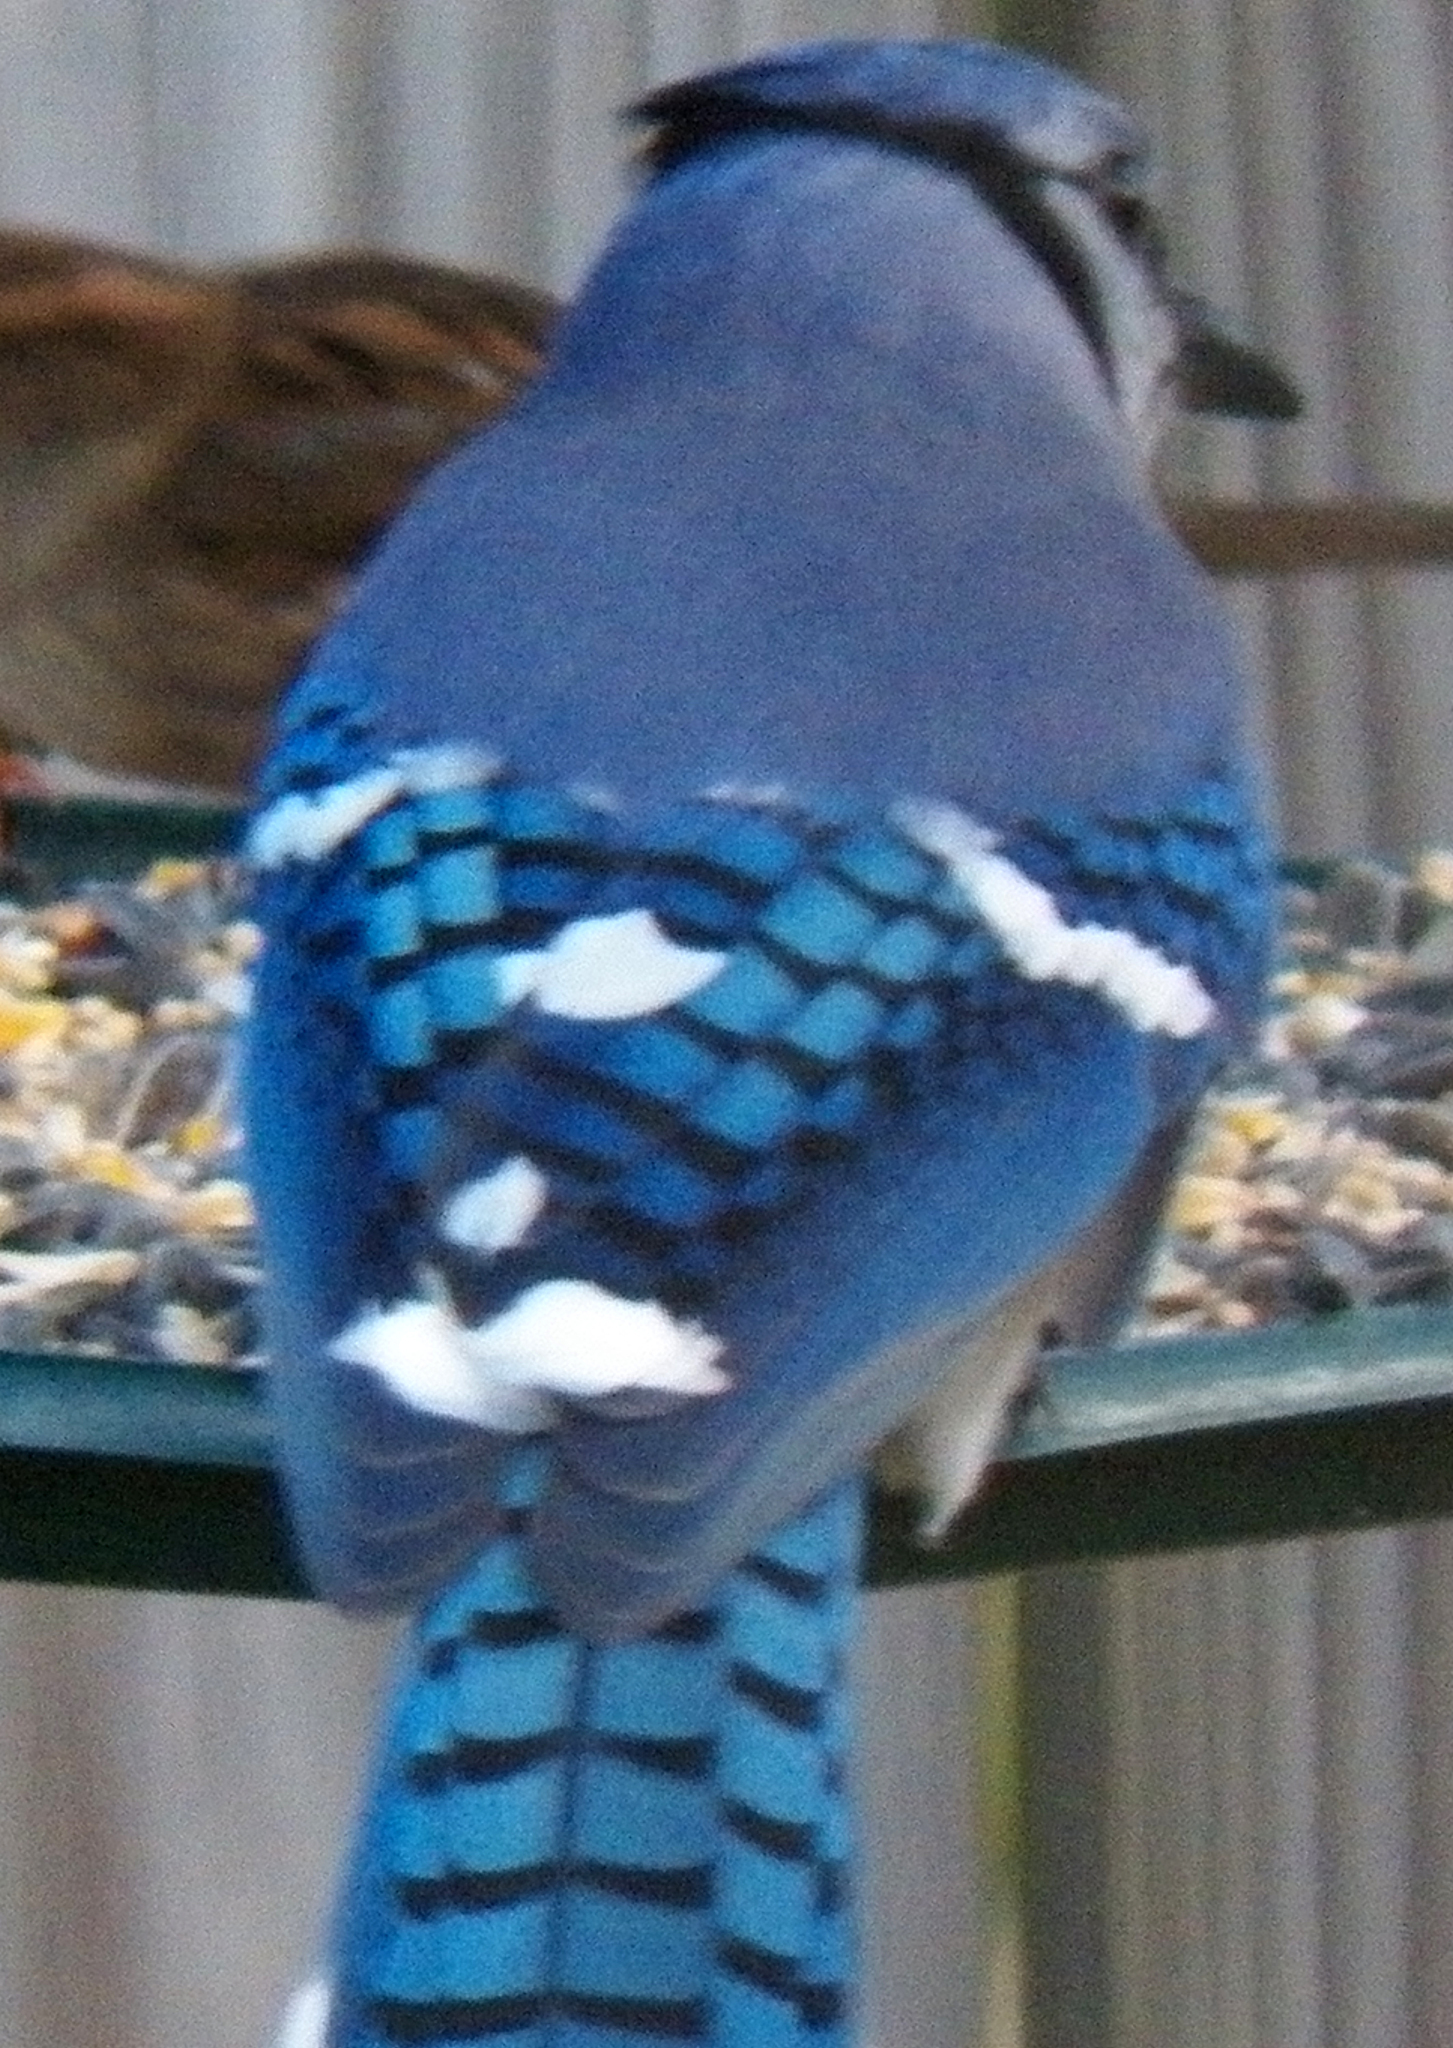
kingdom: Animalia
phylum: Chordata
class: Aves
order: Passeriformes
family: Corvidae
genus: Cyanocitta
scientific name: Cyanocitta cristata
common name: Blue jay
